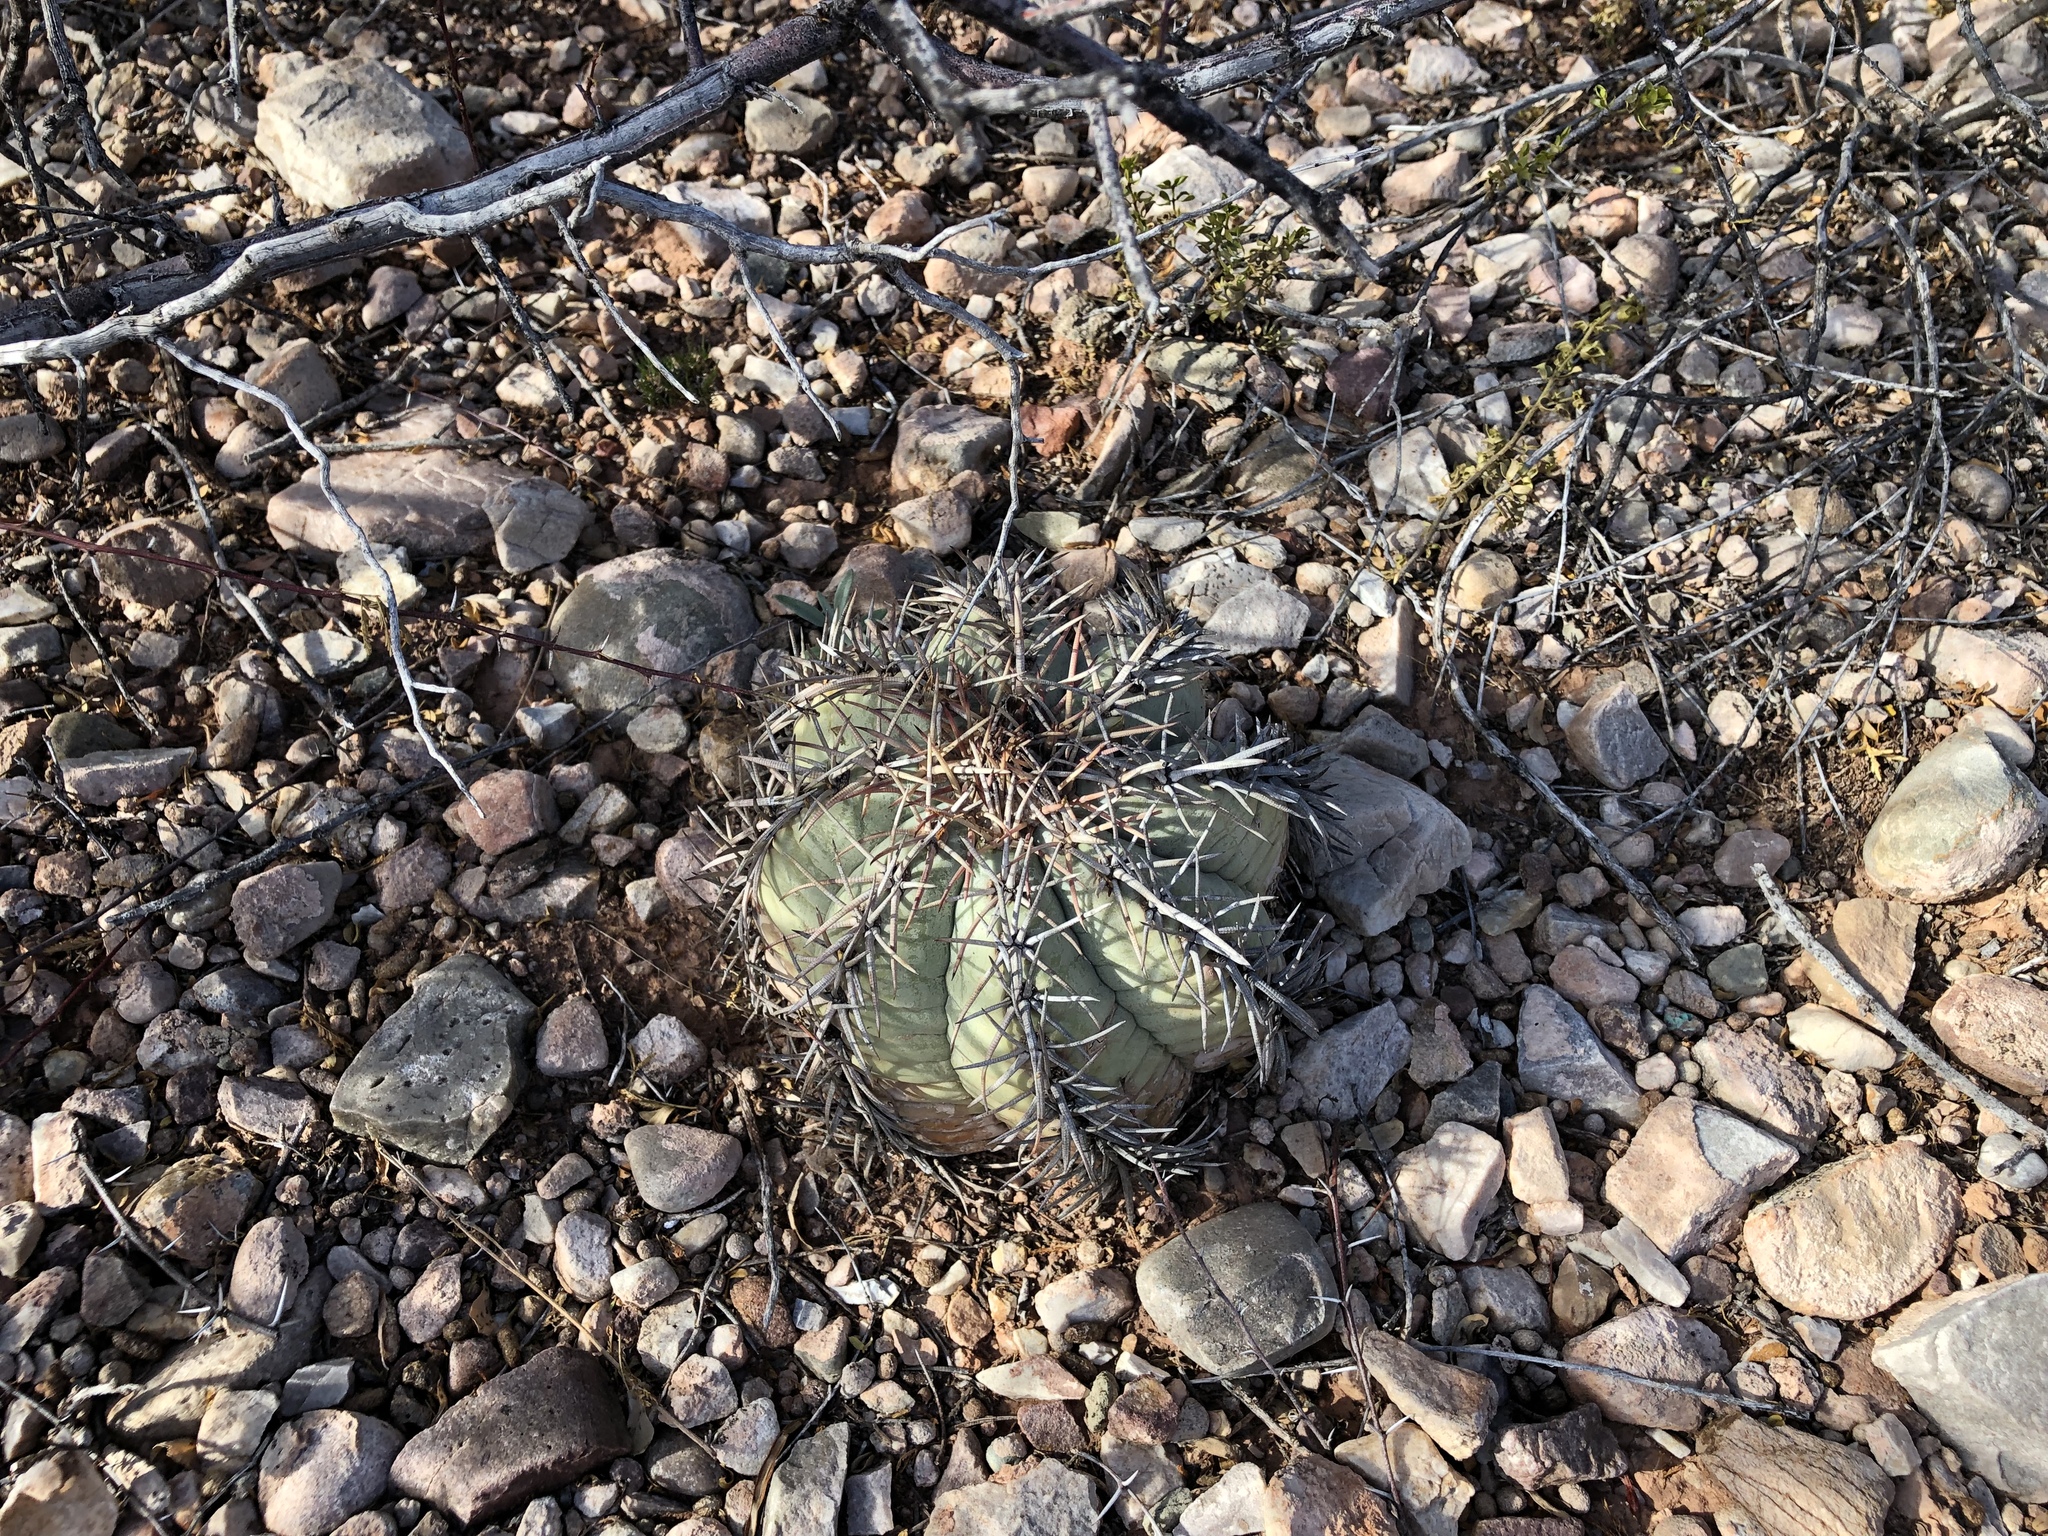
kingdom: Plantae
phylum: Tracheophyta
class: Magnoliopsida
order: Caryophyllales
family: Cactaceae
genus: Echinocactus
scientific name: Echinocactus horizonthalonius
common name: Devilshead
